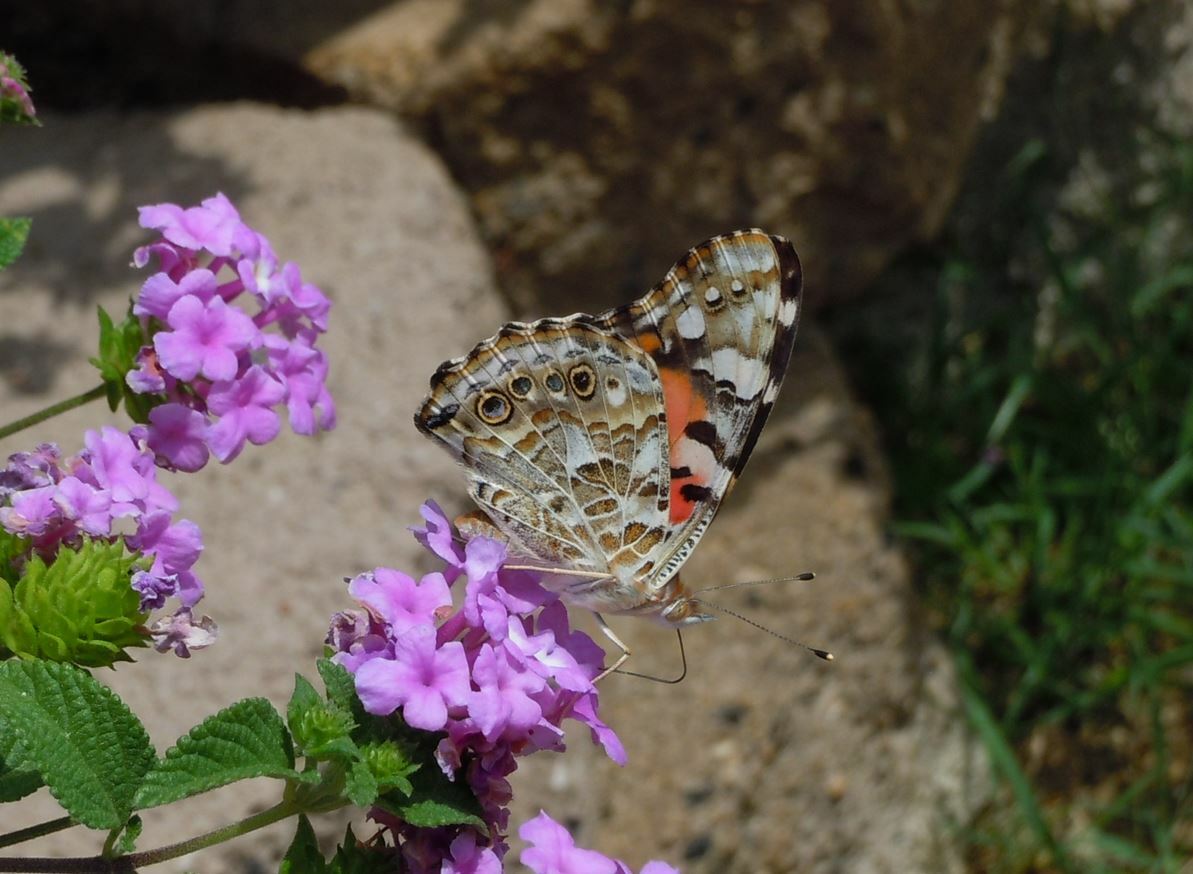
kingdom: Animalia
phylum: Arthropoda
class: Insecta
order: Lepidoptera
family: Nymphalidae
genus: Vanessa
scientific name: Vanessa cardui
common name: Painted lady
